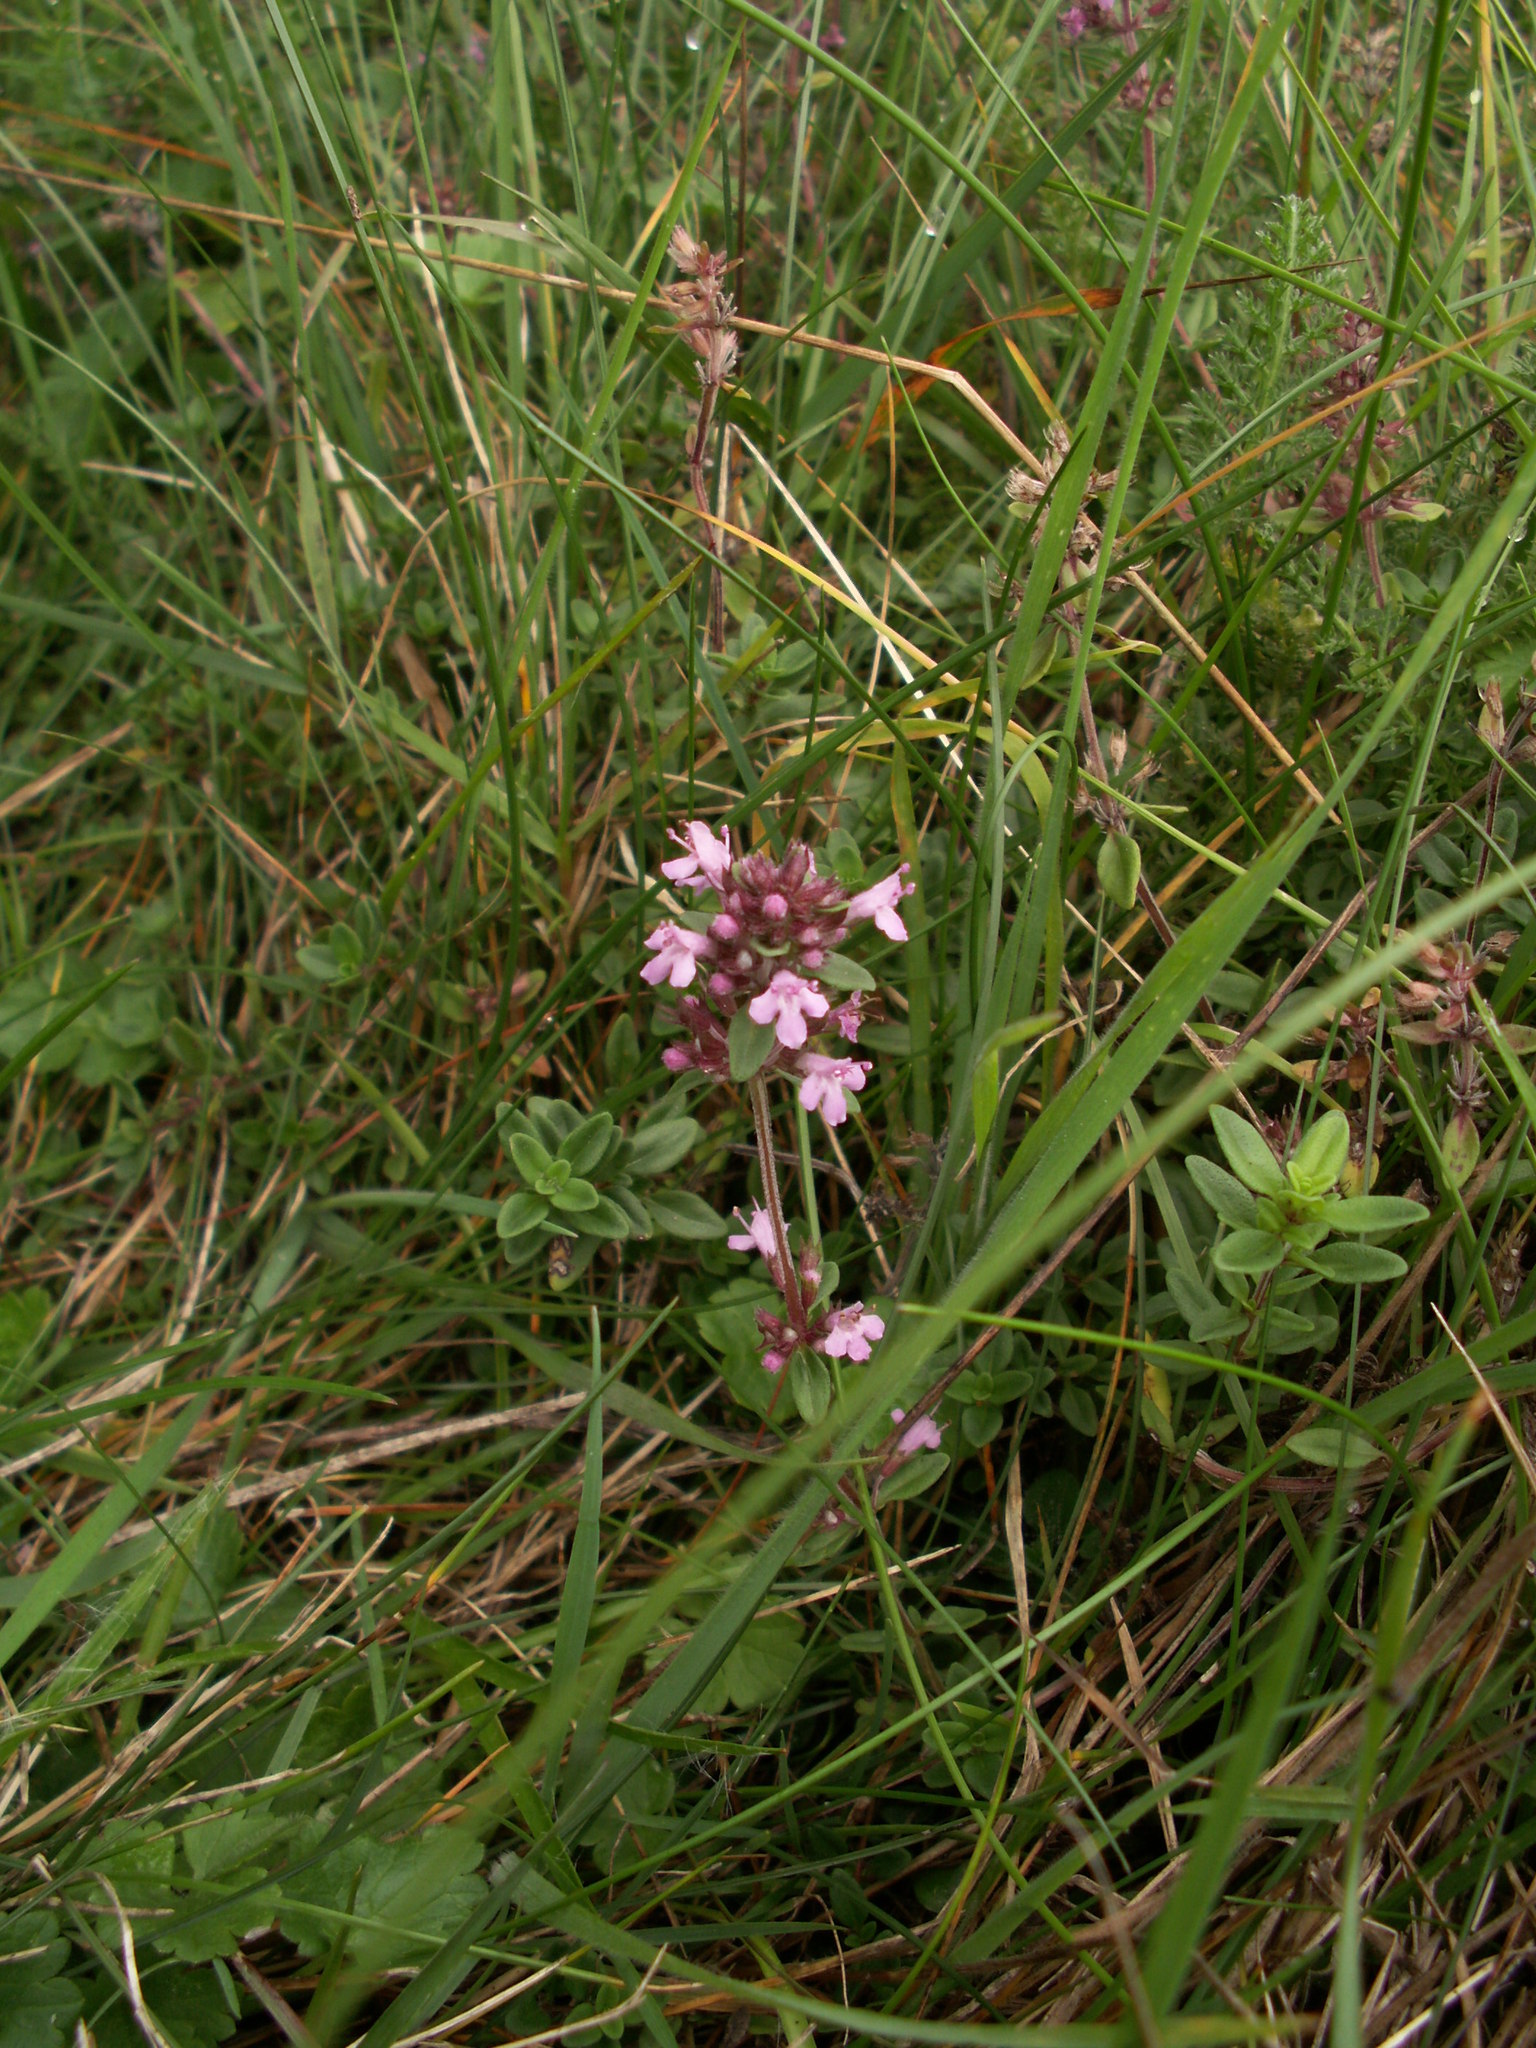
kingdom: Plantae
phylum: Tracheophyta
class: Magnoliopsida
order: Lamiales
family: Lamiaceae
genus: Thymus
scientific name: Thymus pulegioides
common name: Large thyme
